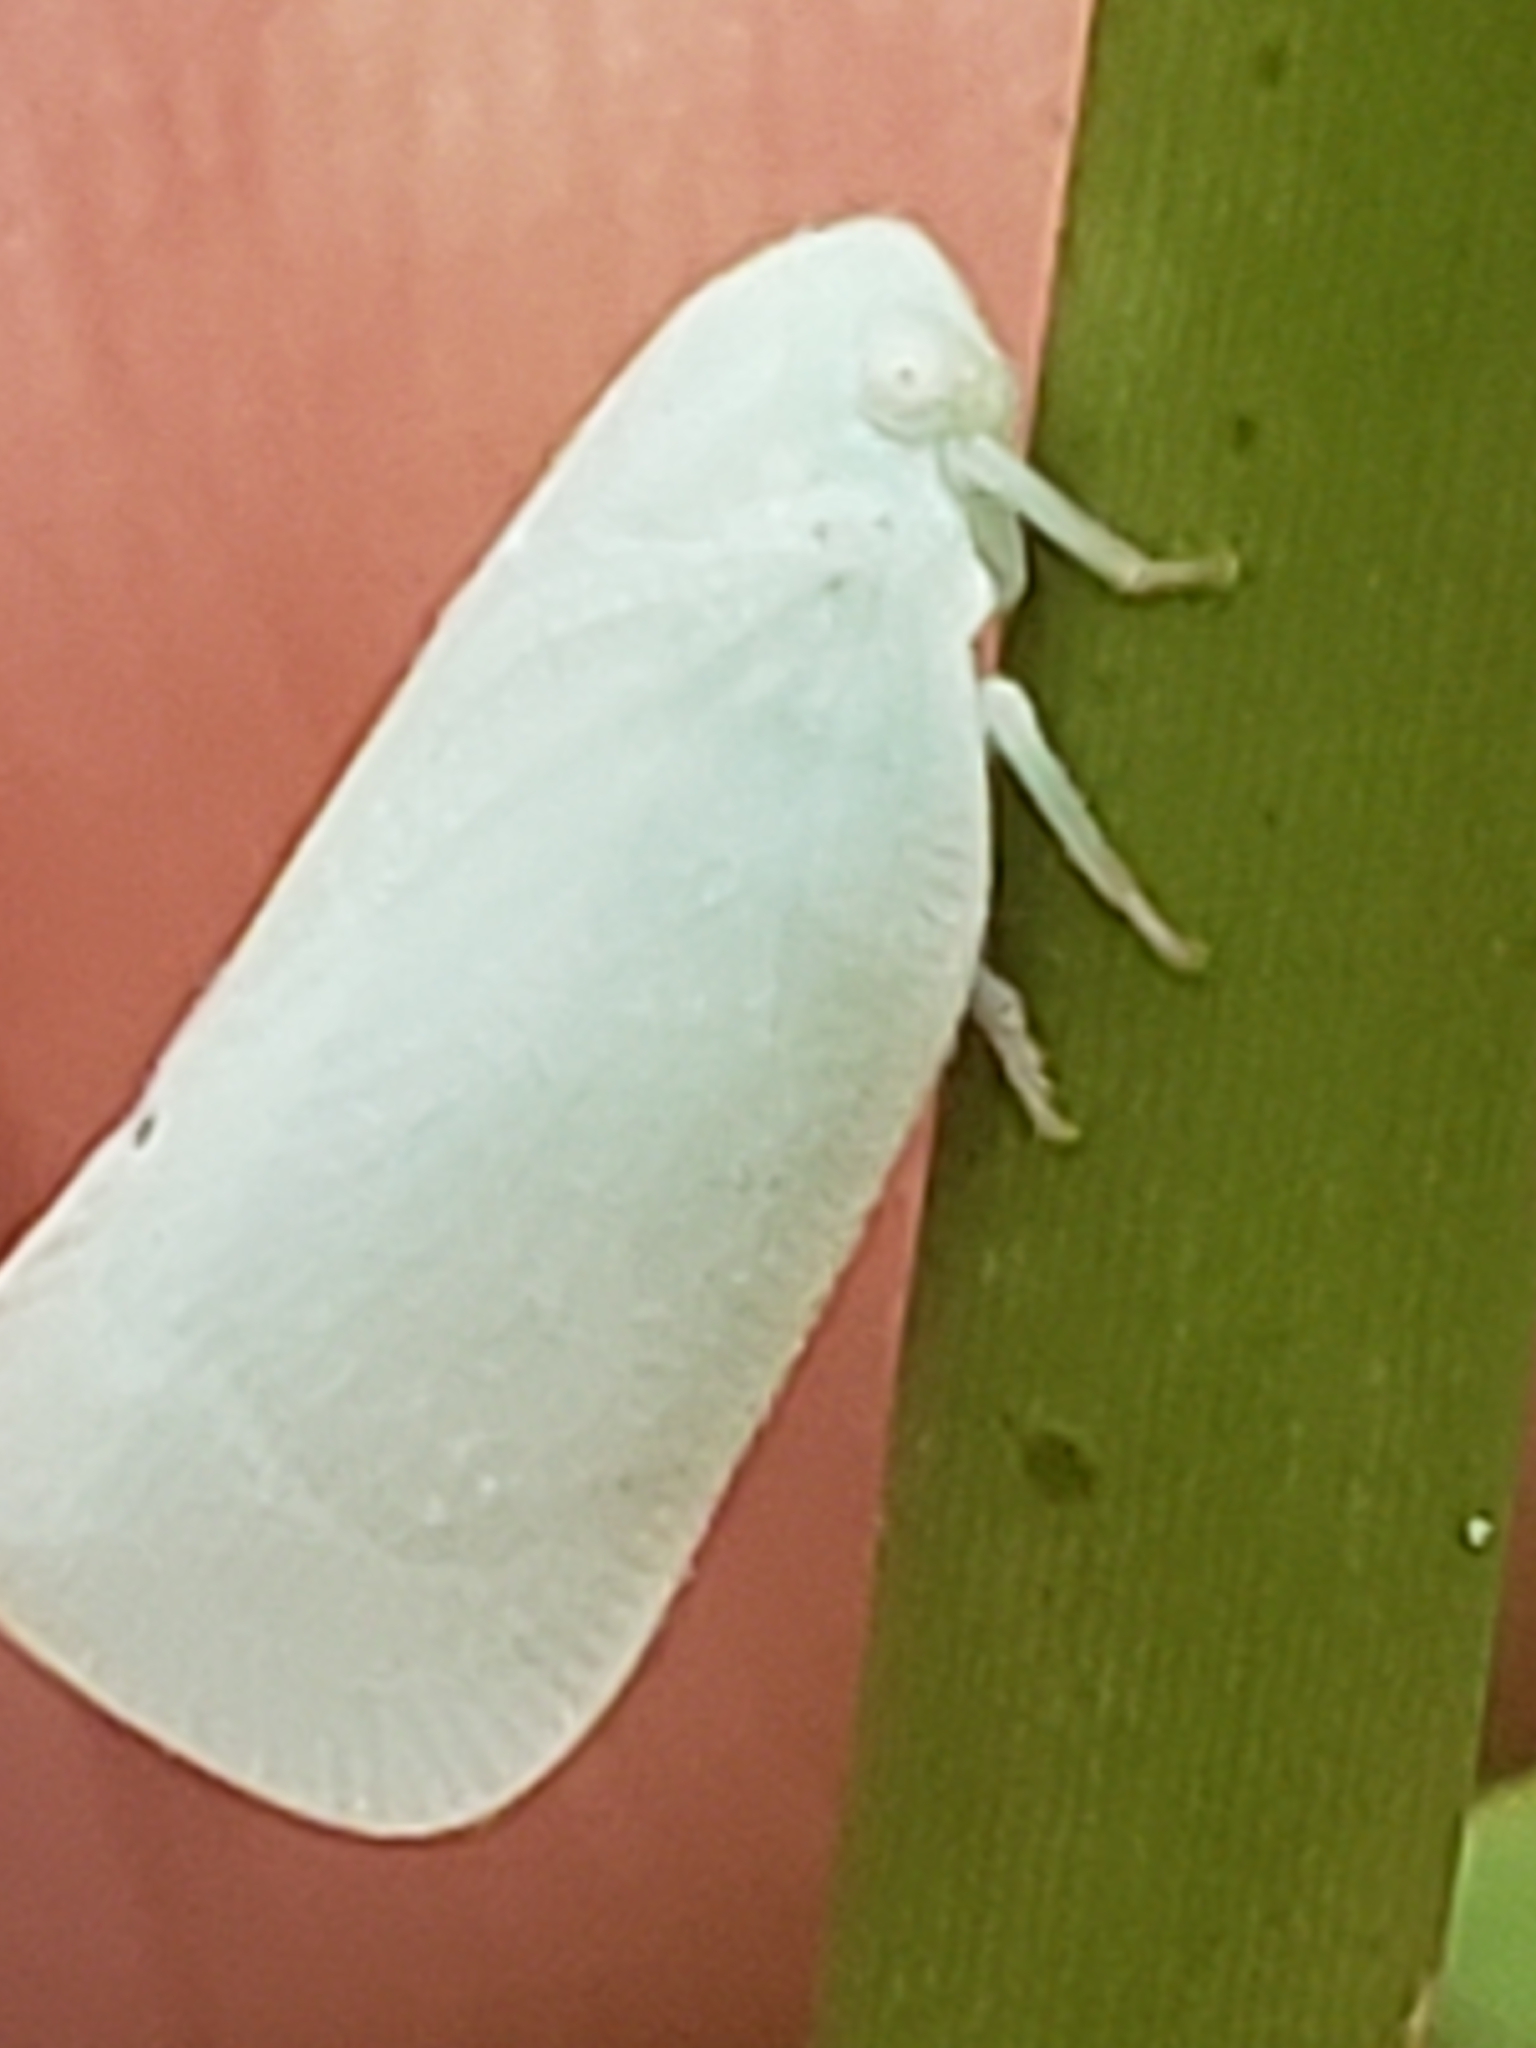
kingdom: Animalia
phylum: Arthropoda
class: Insecta
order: Hemiptera
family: Flatidae
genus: Flatormenis
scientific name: Flatormenis proxima
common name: Northern flatid planthopper
